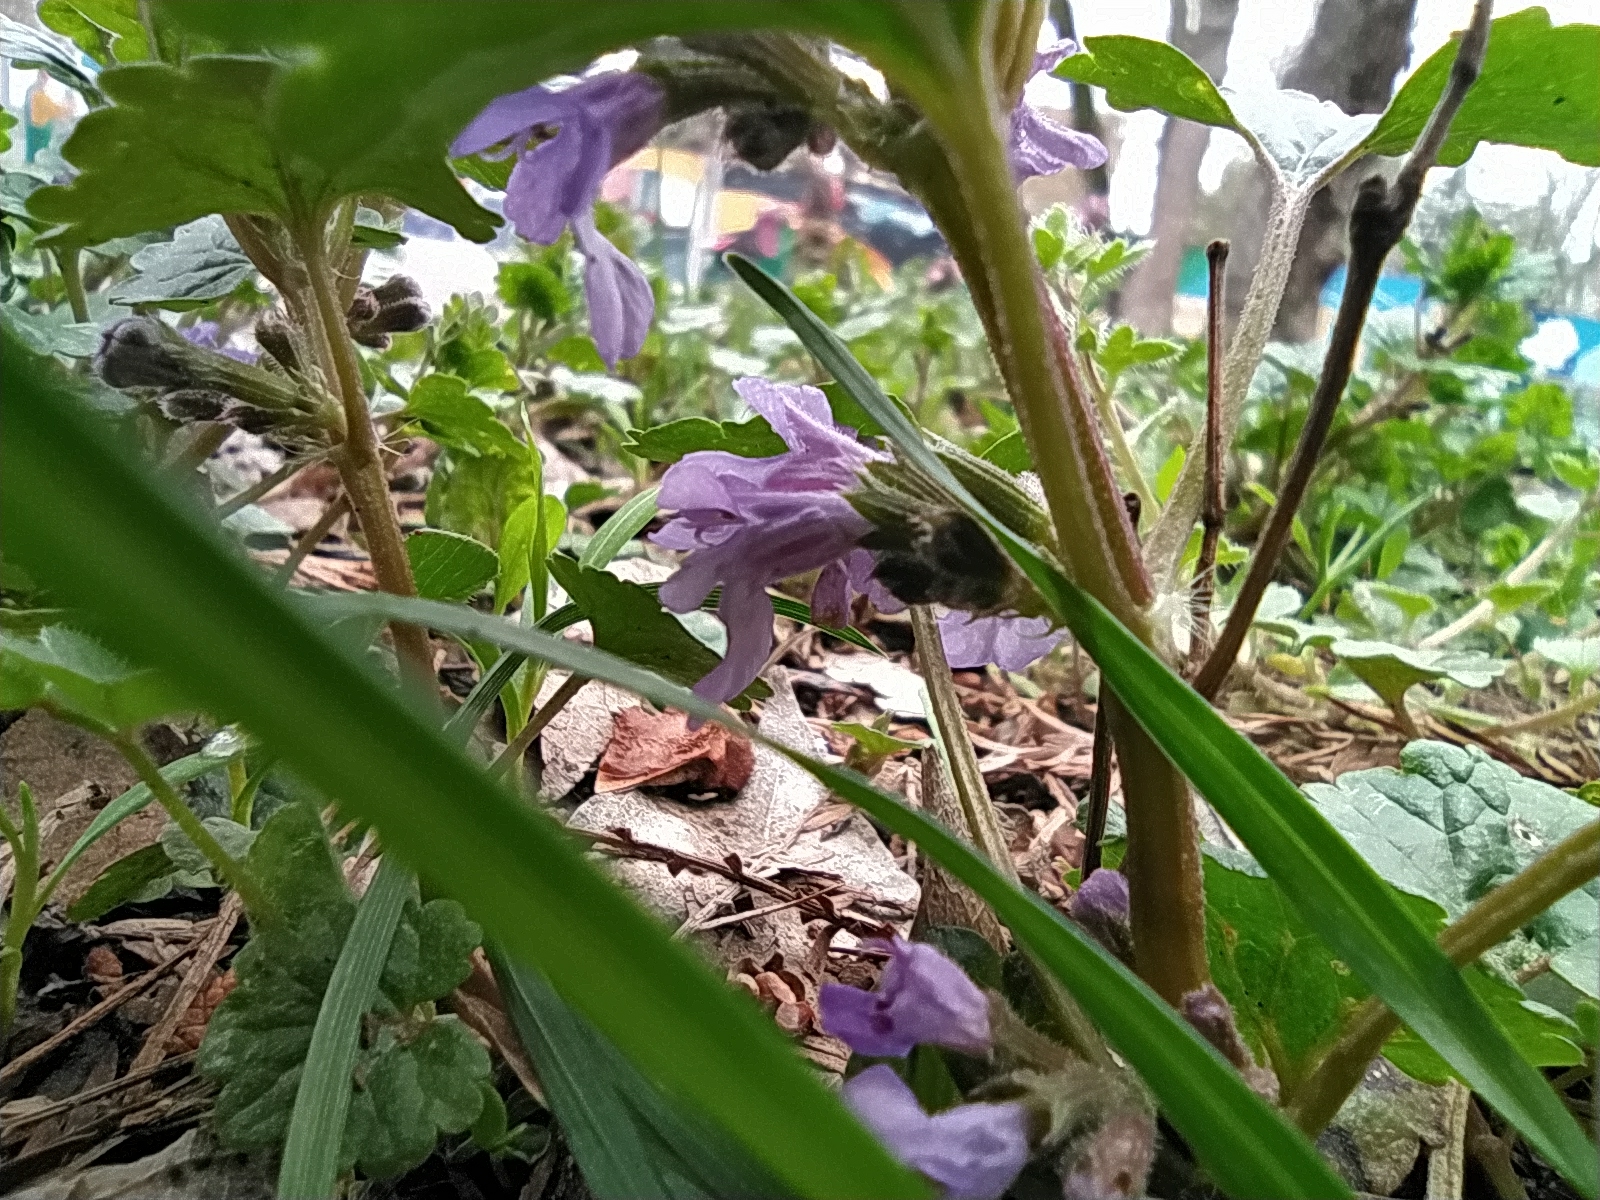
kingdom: Plantae
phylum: Tracheophyta
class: Magnoliopsida
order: Lamiales
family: Lamiaceae
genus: Glechoma
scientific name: Glechoma hederacea
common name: Ground ivy
